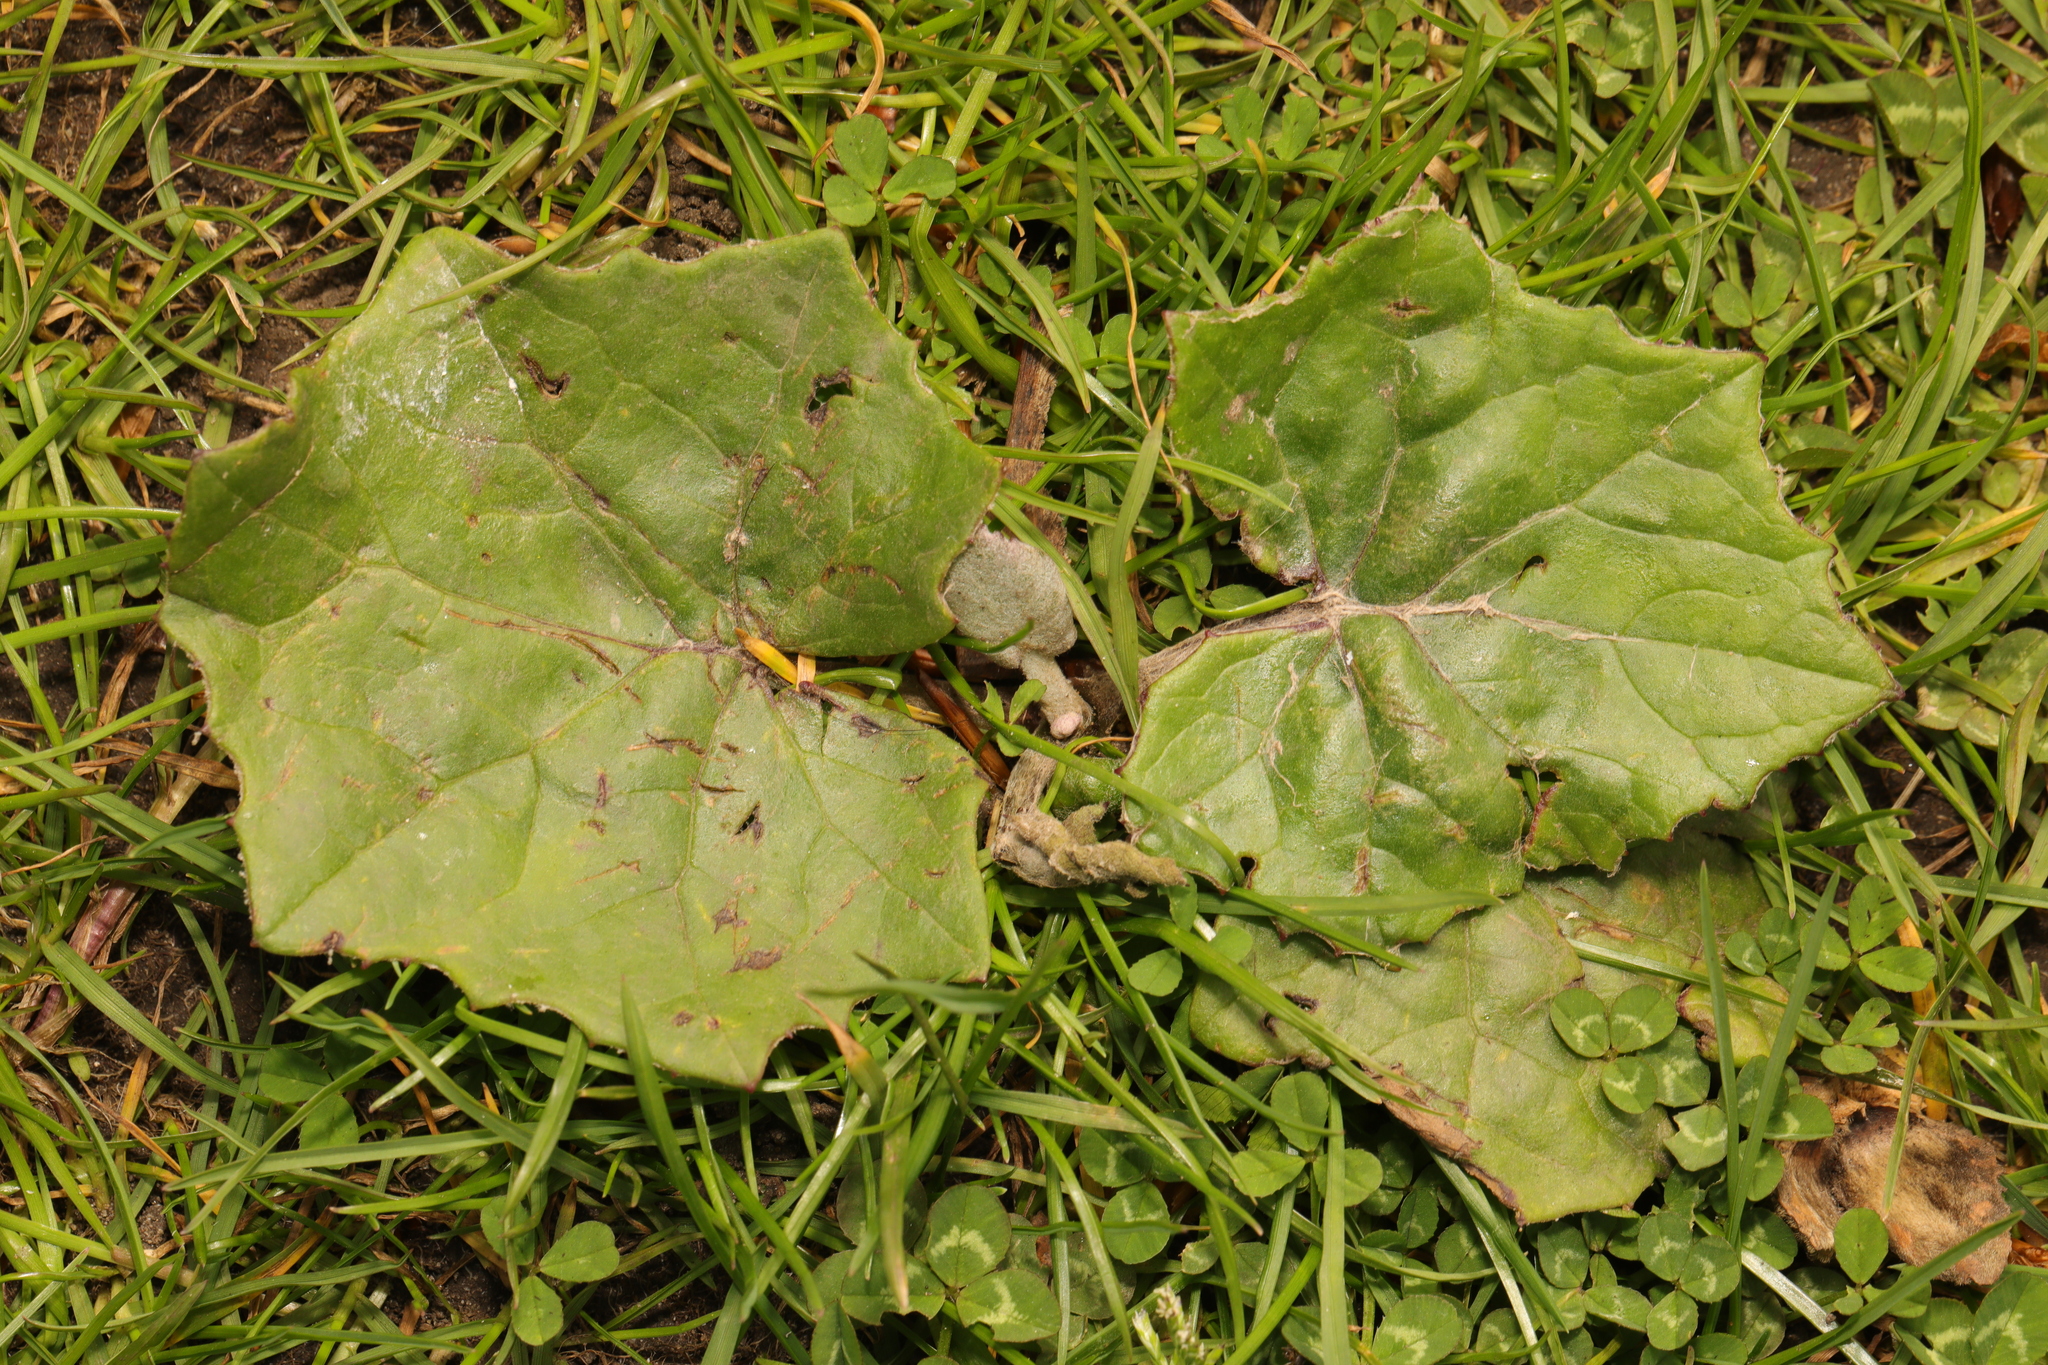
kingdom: Plantae
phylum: Tracheophyta
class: Magnoliopsida
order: Asterales
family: Asteraceae
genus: Tussilago
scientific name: Tussilago farfara
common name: Coltsfoot
